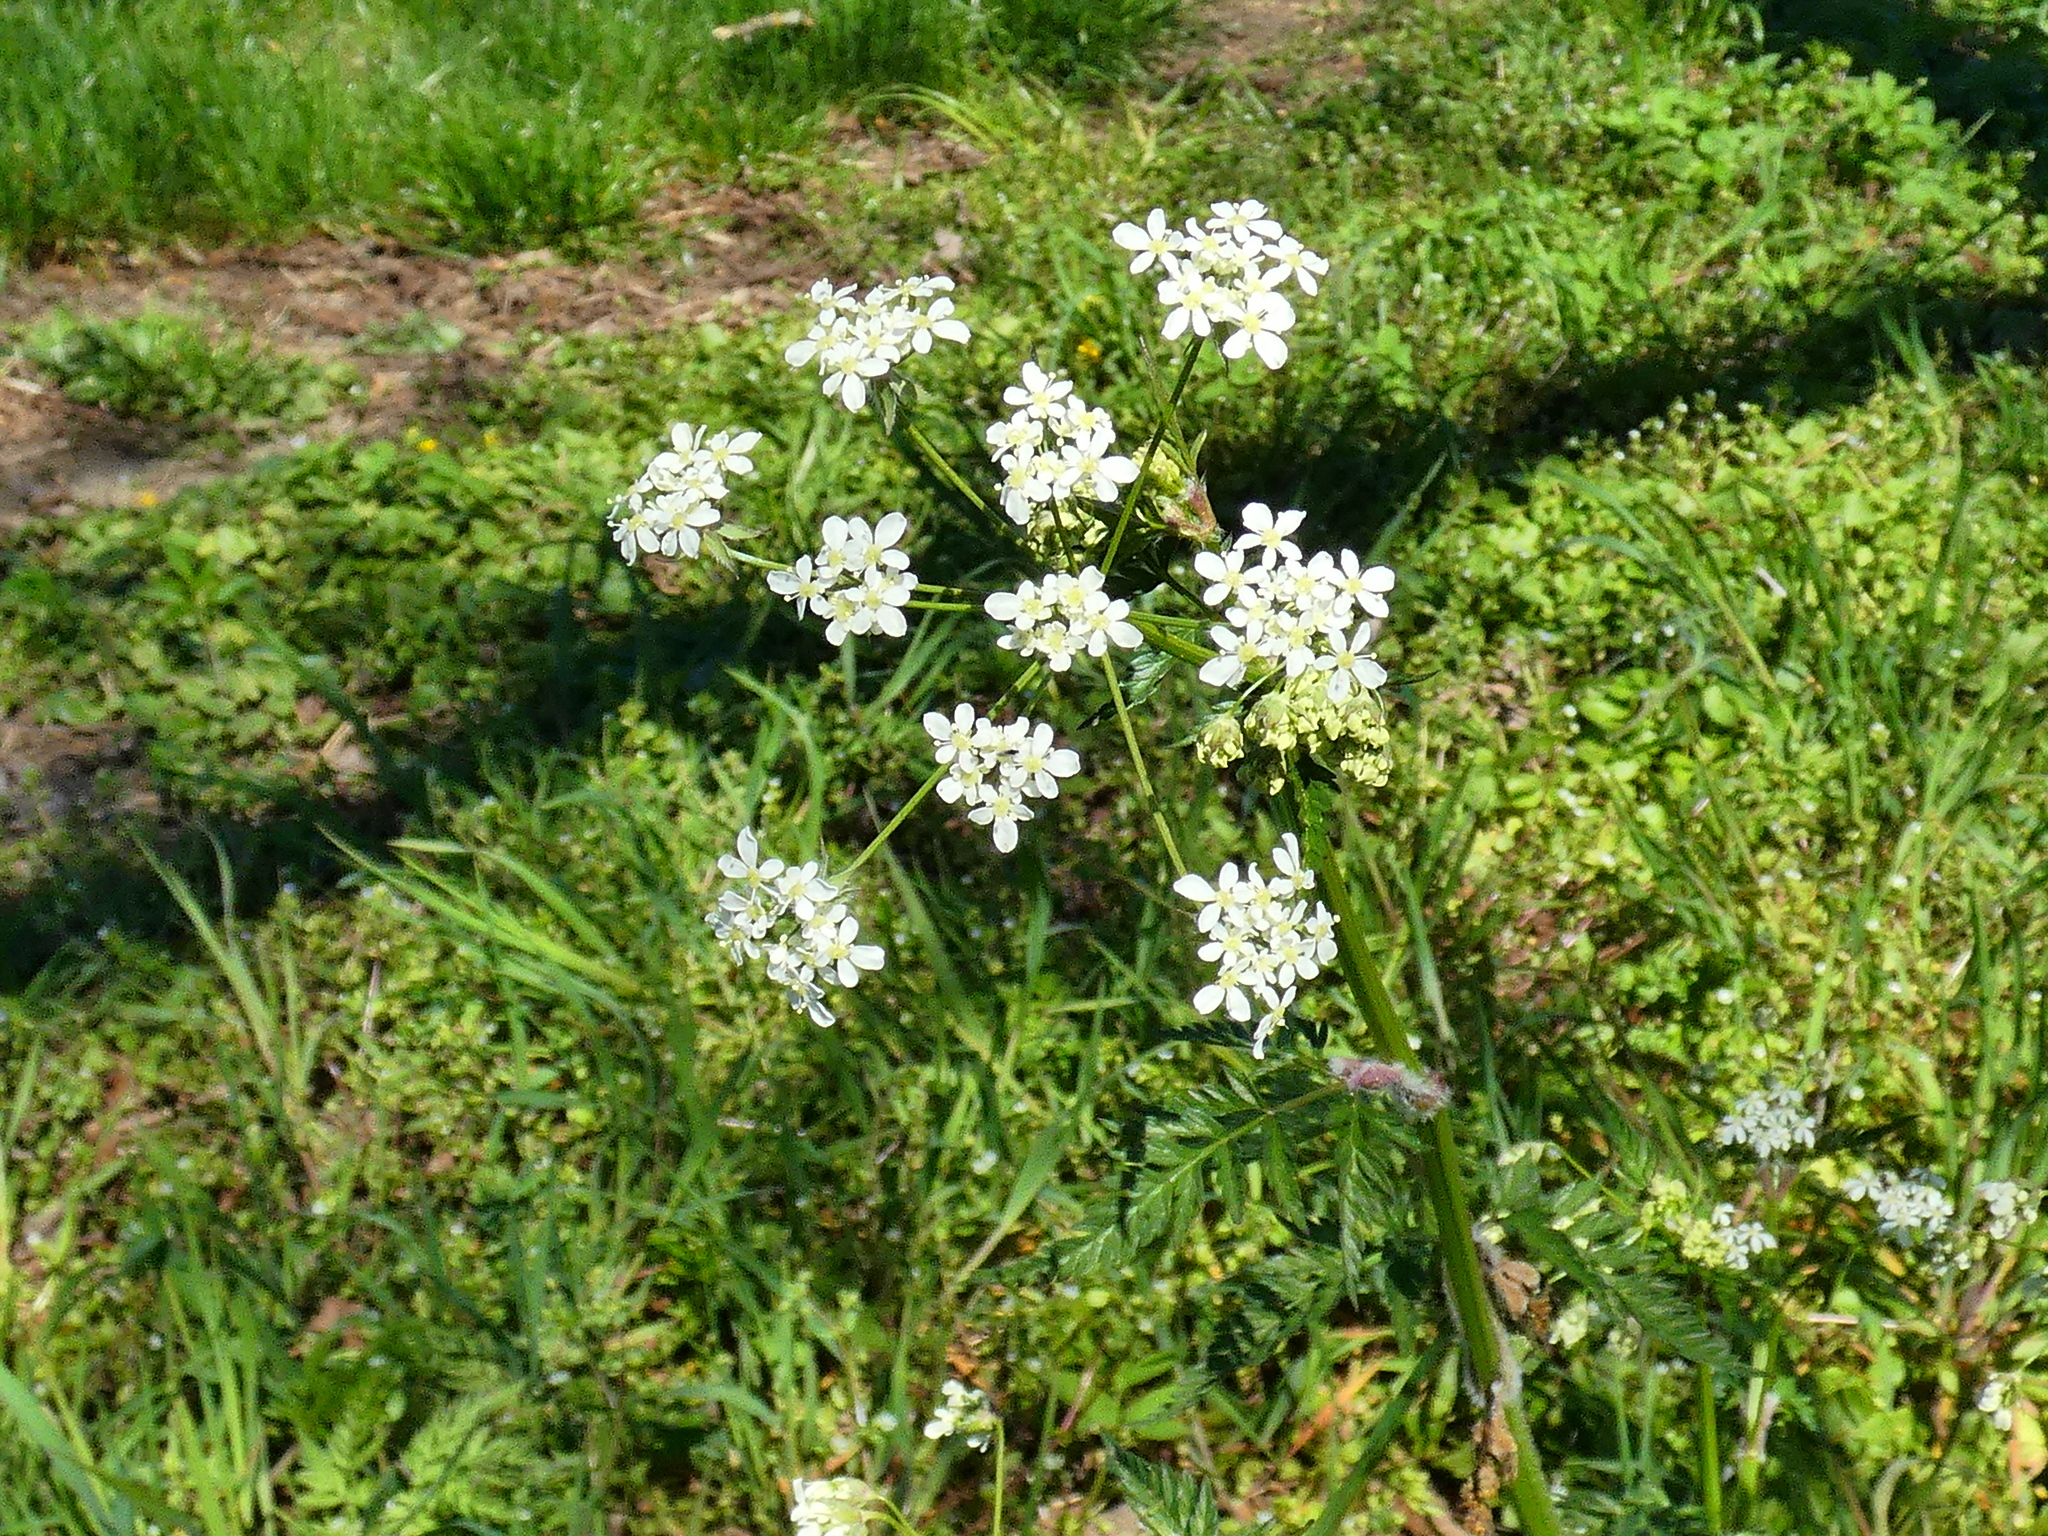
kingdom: Plantae
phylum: Tracheophyta
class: Magnoliopsida
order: Apiales
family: Apiaceae
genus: Anthriscus
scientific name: Anthriscus sylvestris
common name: Cow parsley
